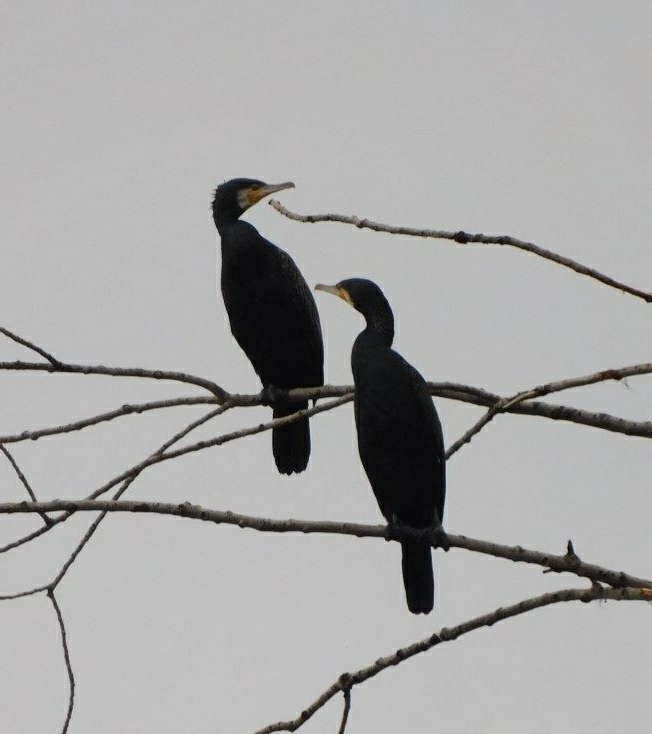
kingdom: Animalia
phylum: Chordata
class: Aves
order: Suliformes
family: Phalacrocoracidae
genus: Phalacrocorax
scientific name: Phalacrocorax carbo
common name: Great cormorant
